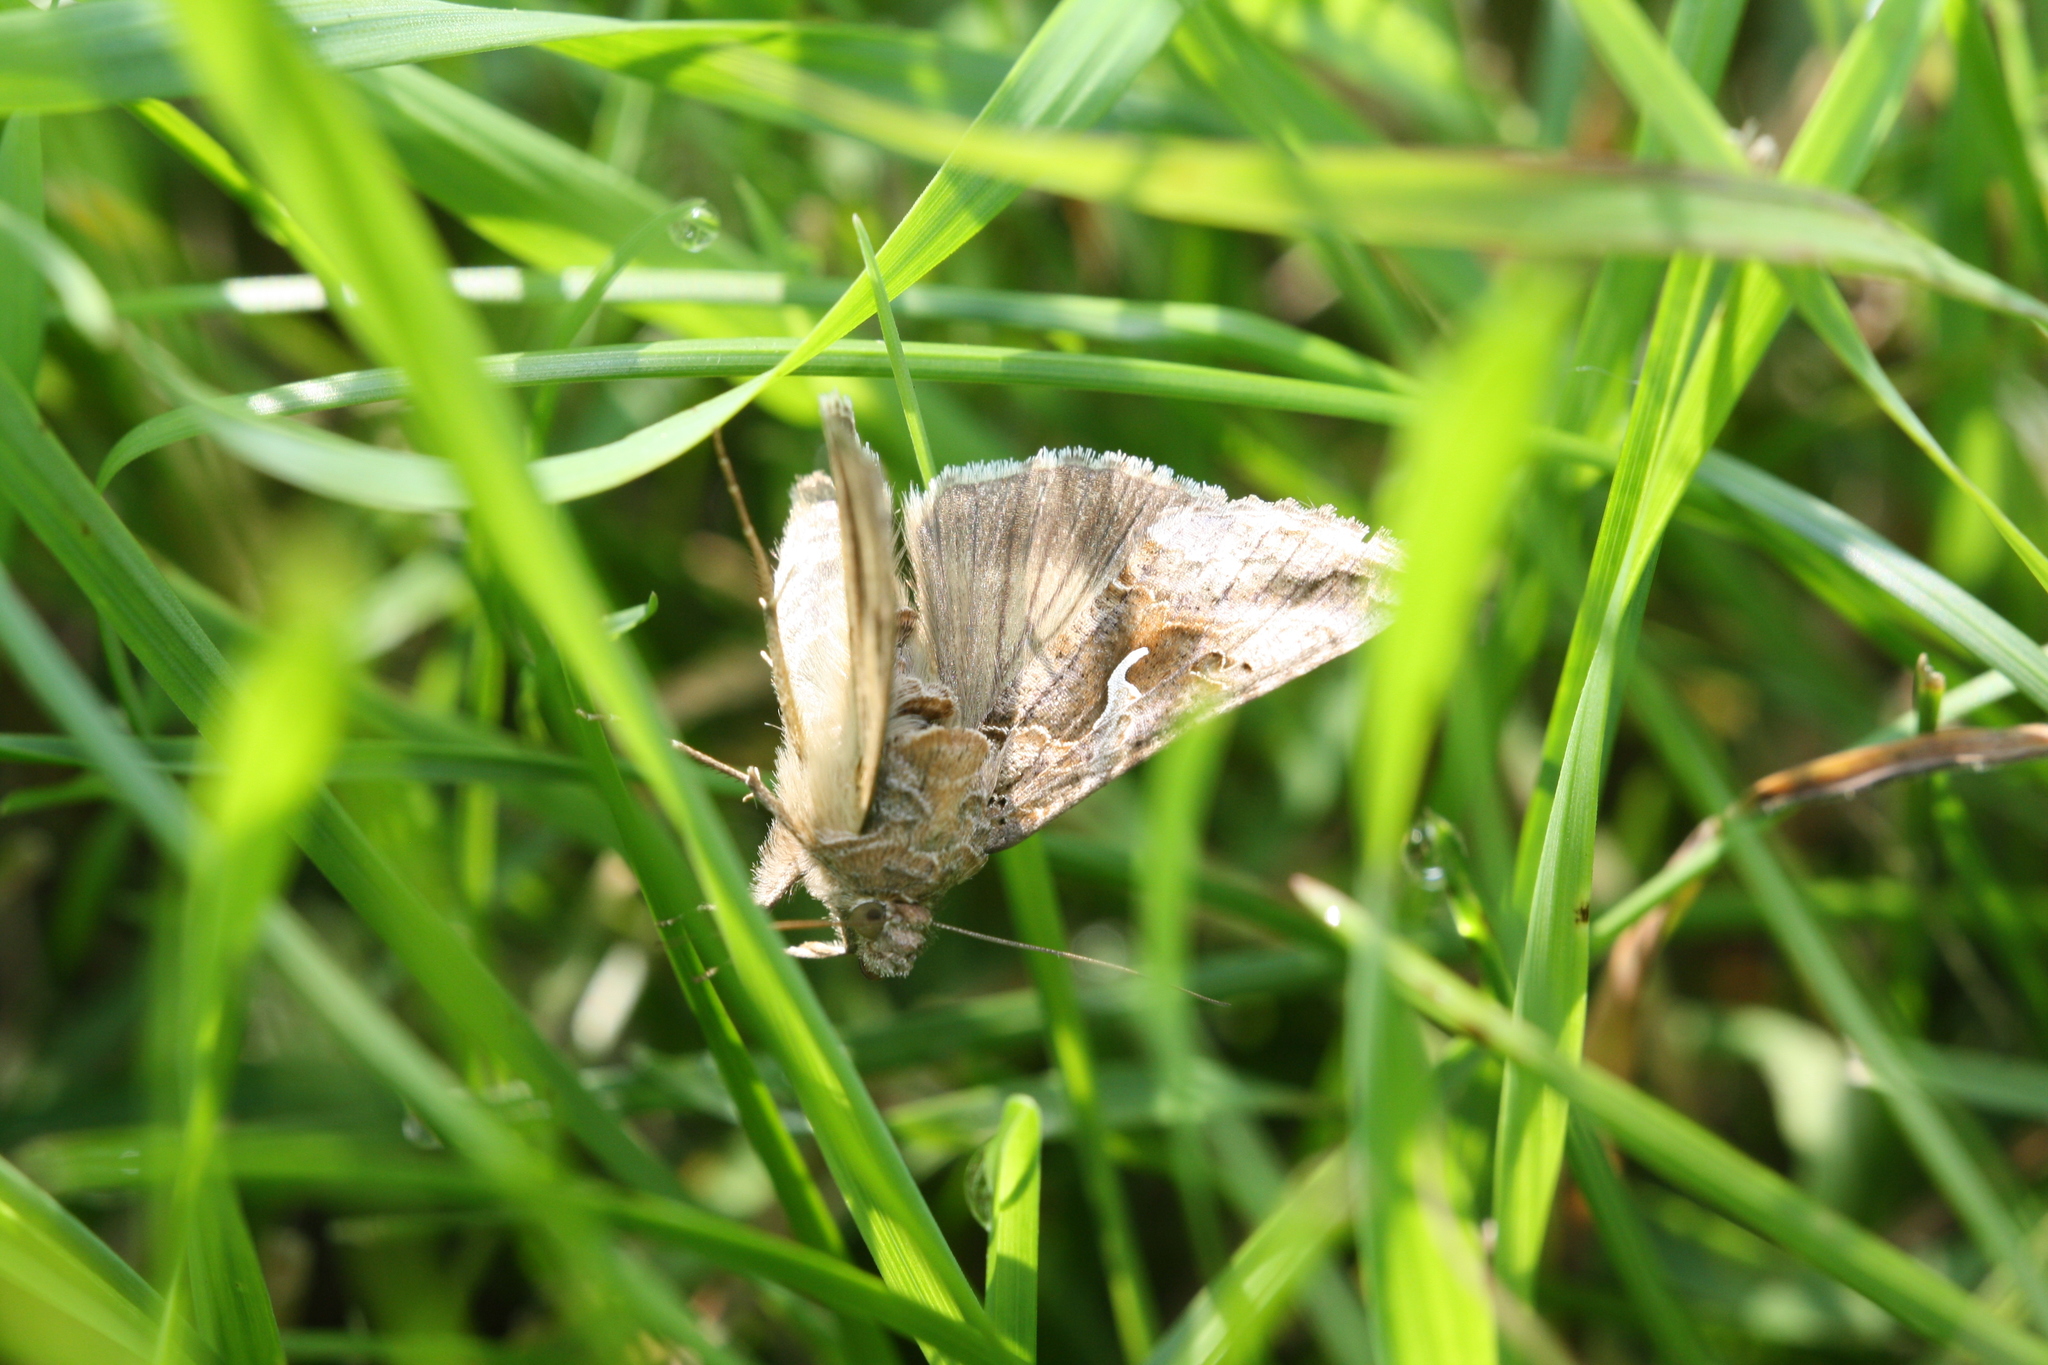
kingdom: Animalia
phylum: Arthropoda
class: Insecta
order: Lepidoptera
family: Noctuidae
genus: Autographa
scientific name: Autographa gamma
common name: Silver y
